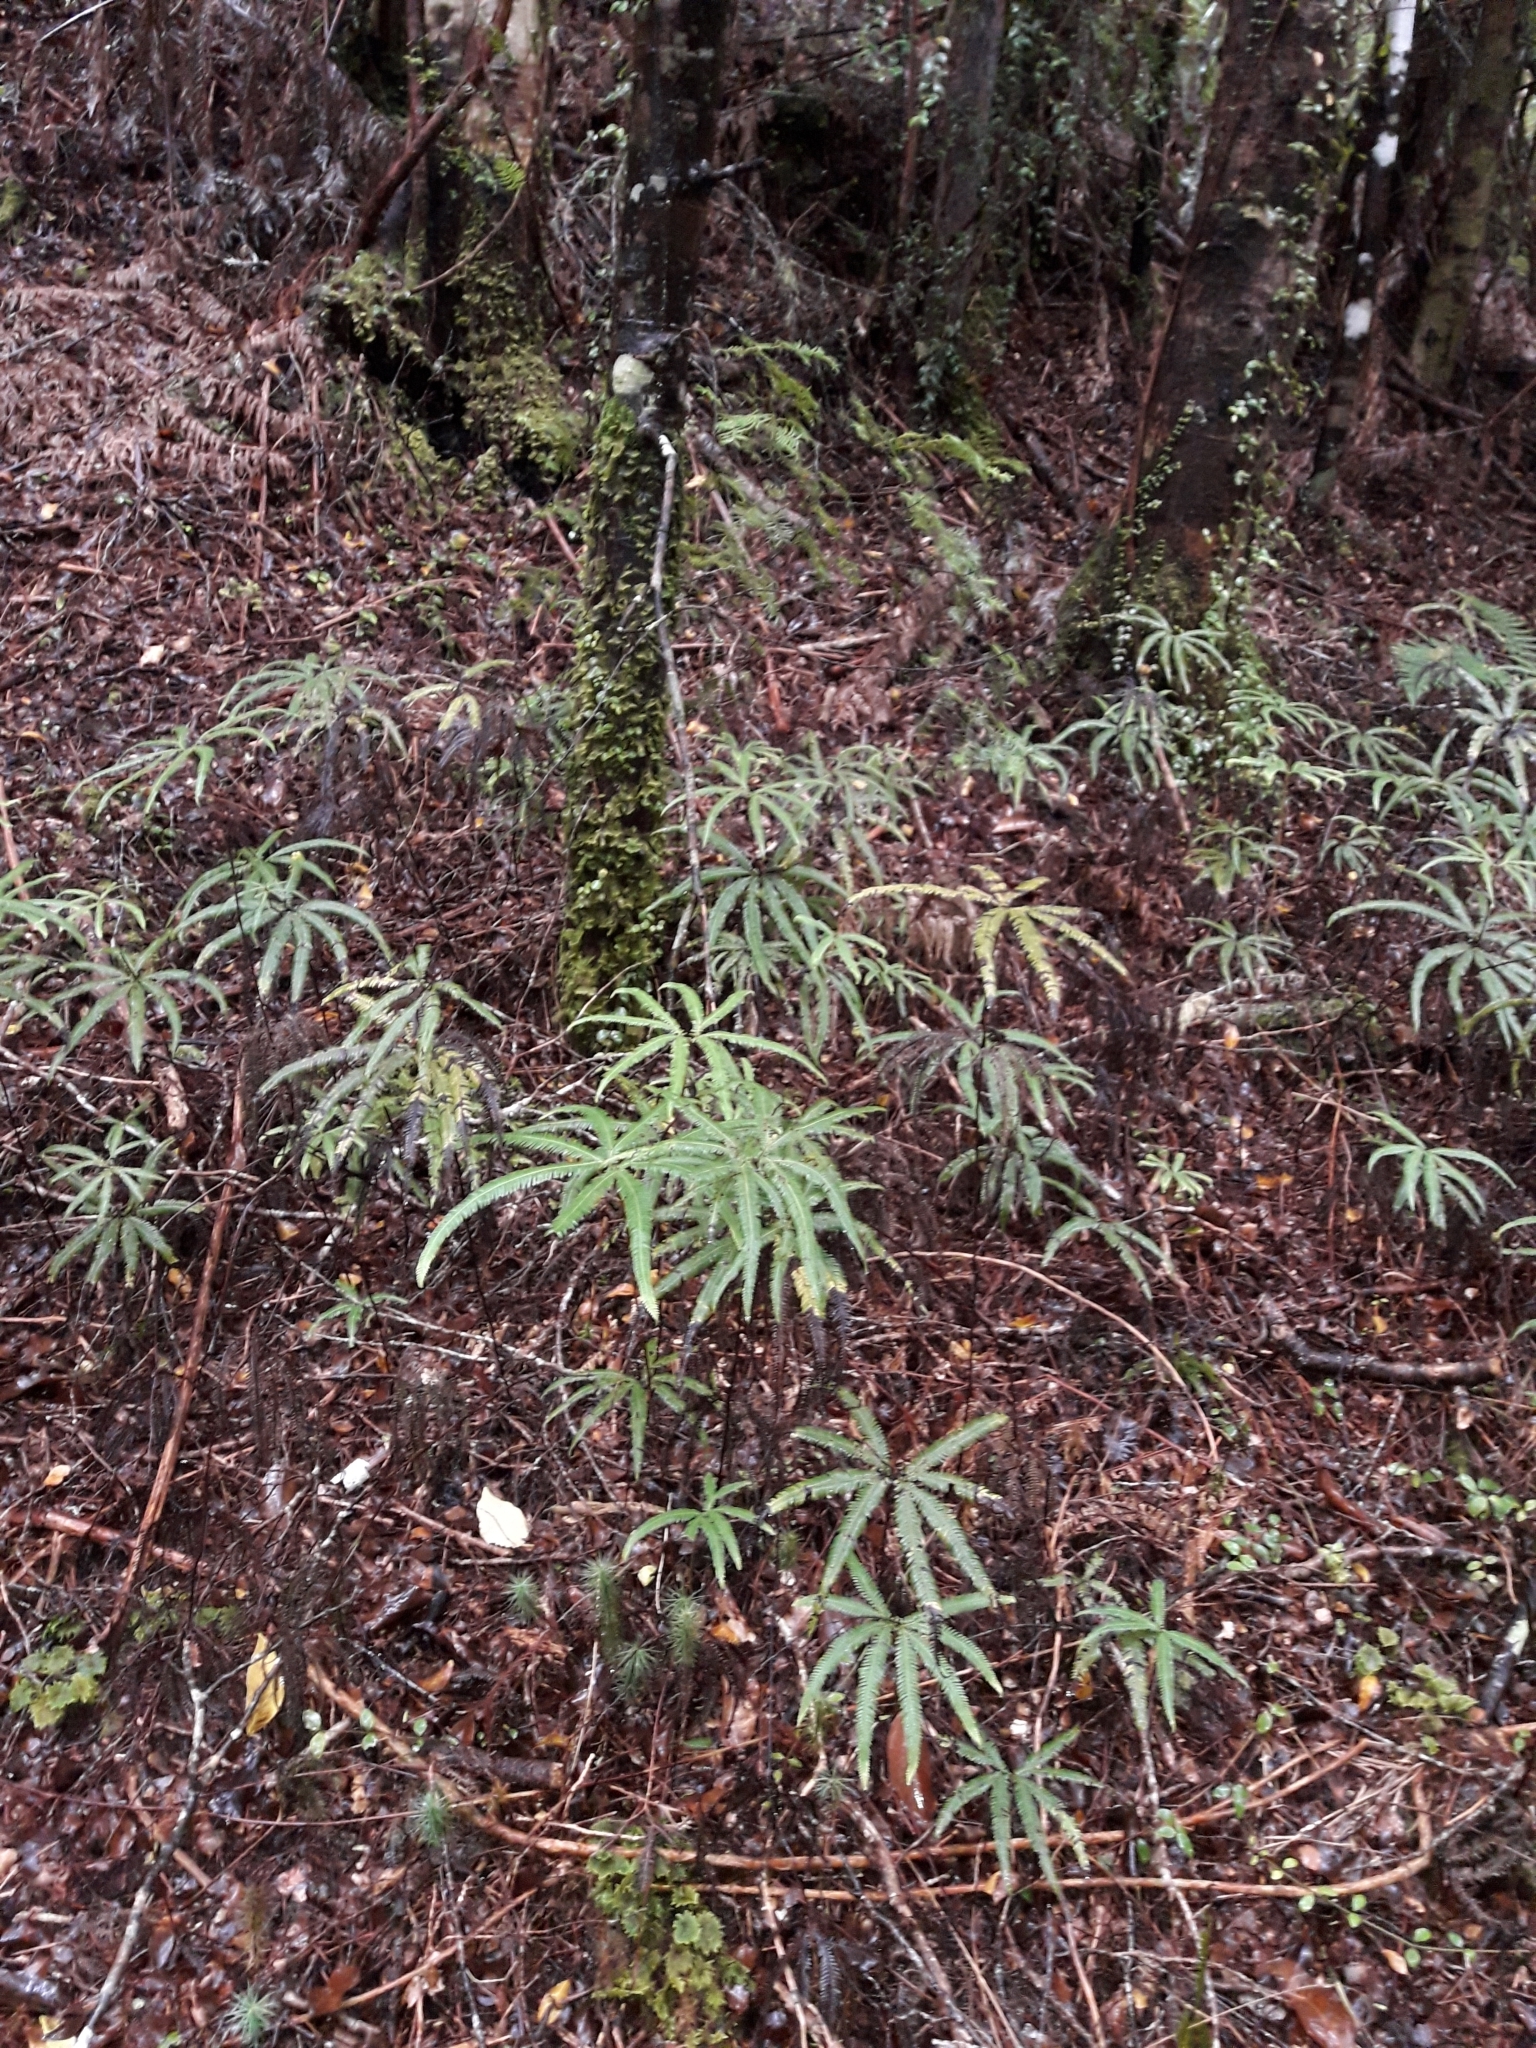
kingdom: Plantae
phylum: Tracheophyta
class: Polypodiopsida
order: Gleicheniales
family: Gleicheniaceae
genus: Sticherus
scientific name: Sticherus cunninghamii
